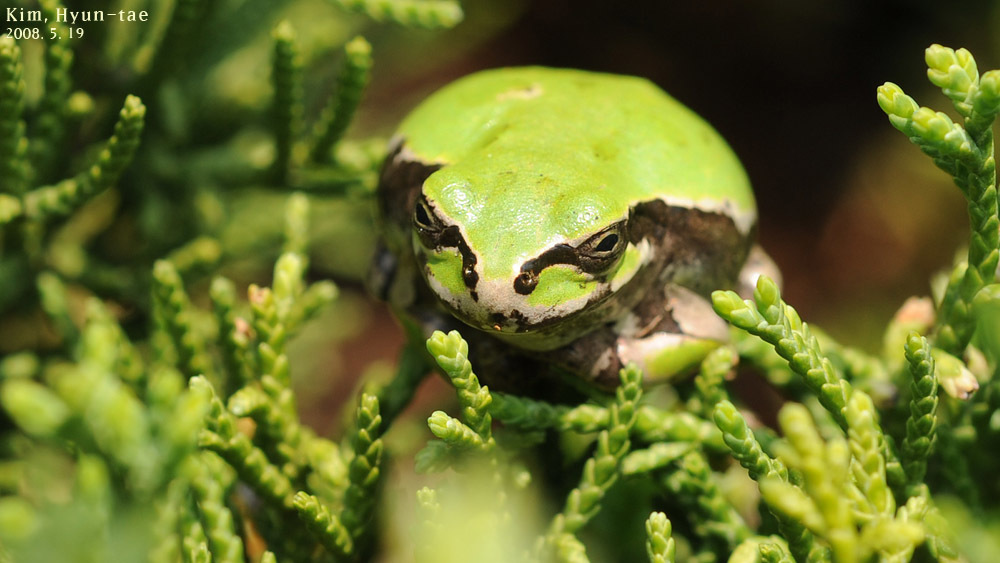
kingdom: Animalia
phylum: Chordata
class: Amphibia
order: Anura
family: Hylidae
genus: Dryophytes
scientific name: Dryophytes japonicus
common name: Japanese treefrog
